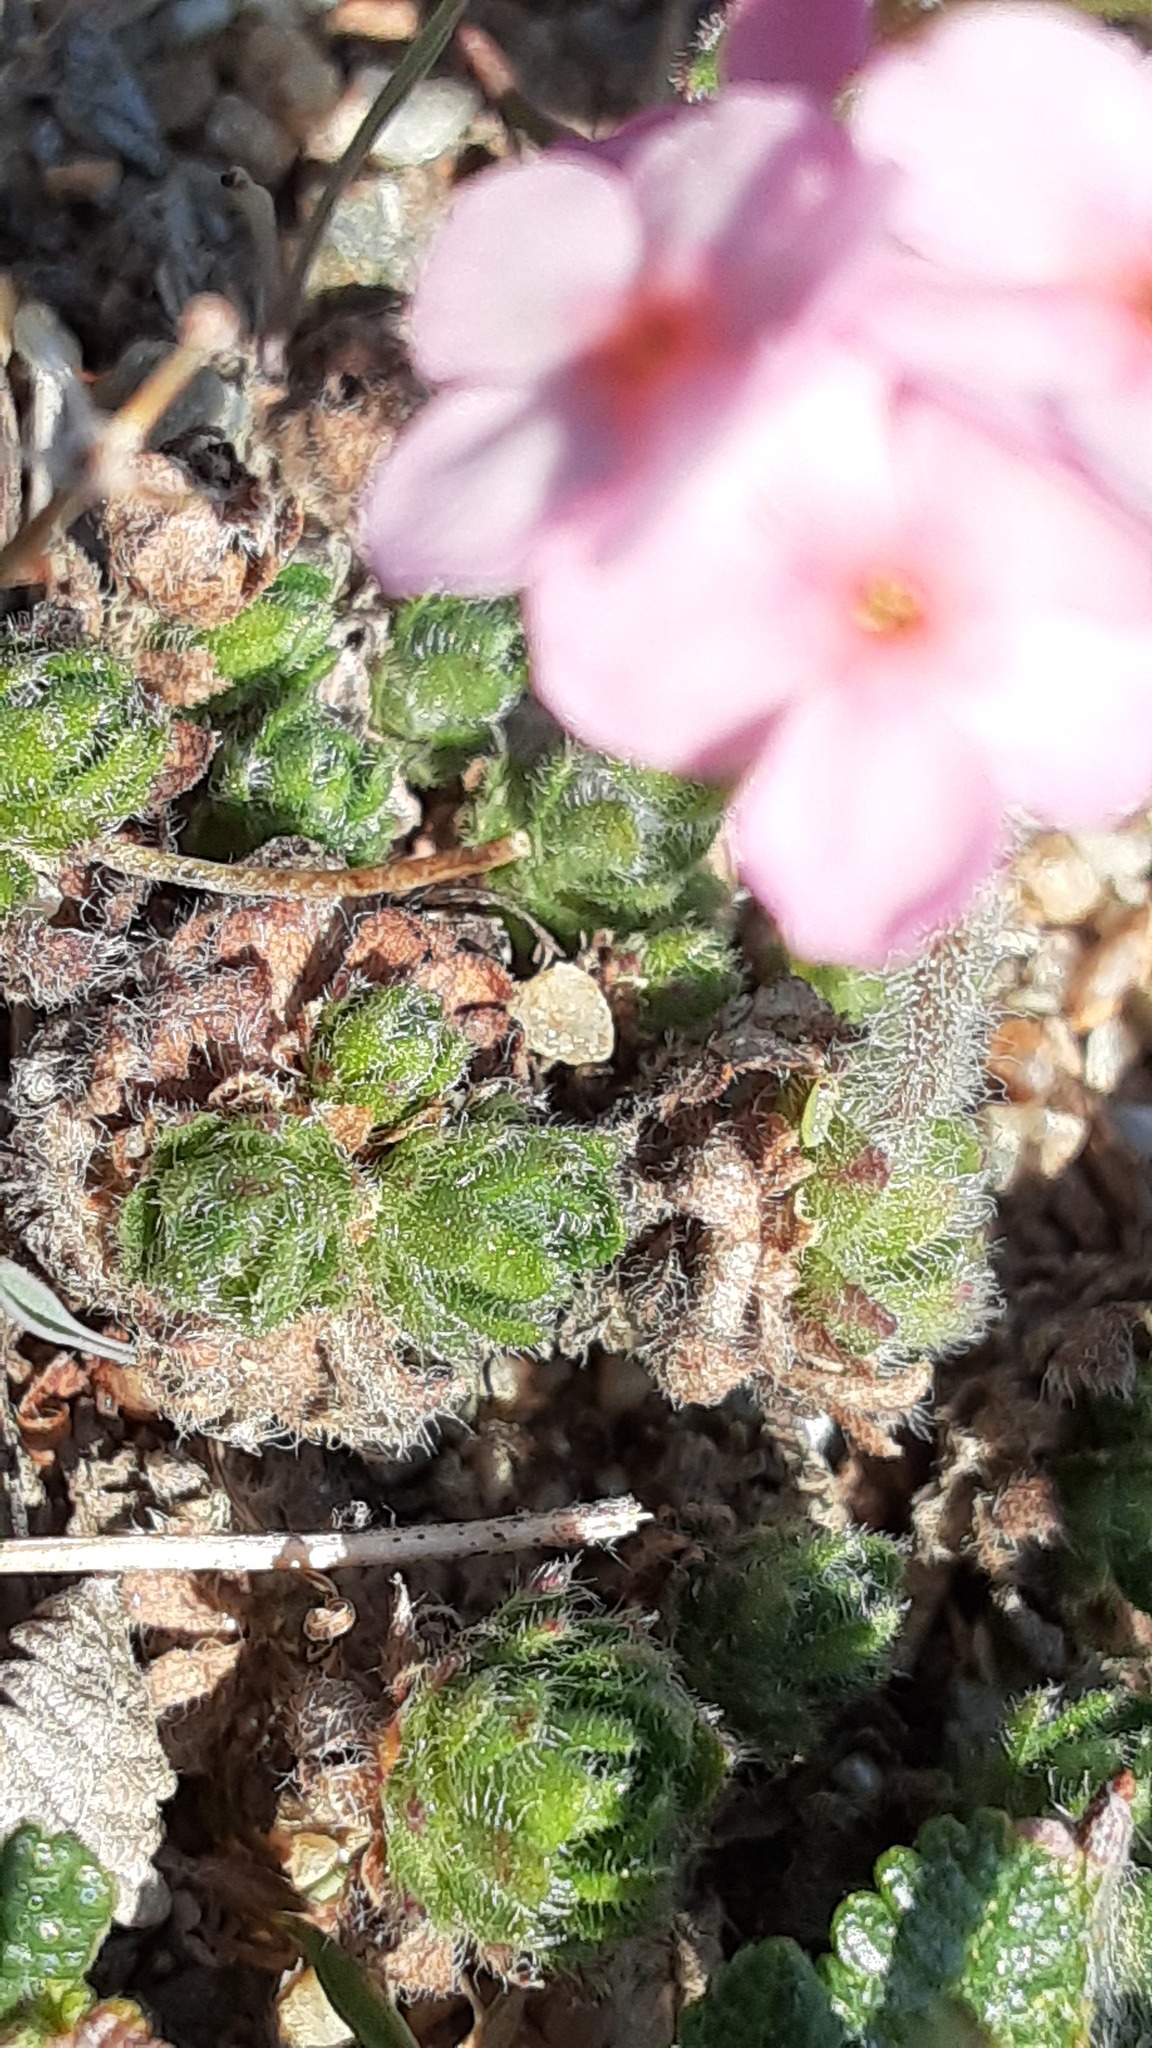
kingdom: Plantae
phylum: Tracheophyta
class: Magnoliopsida
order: Ericales
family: Primulaceae
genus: Androsace
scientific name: Androsace chamaejasme
